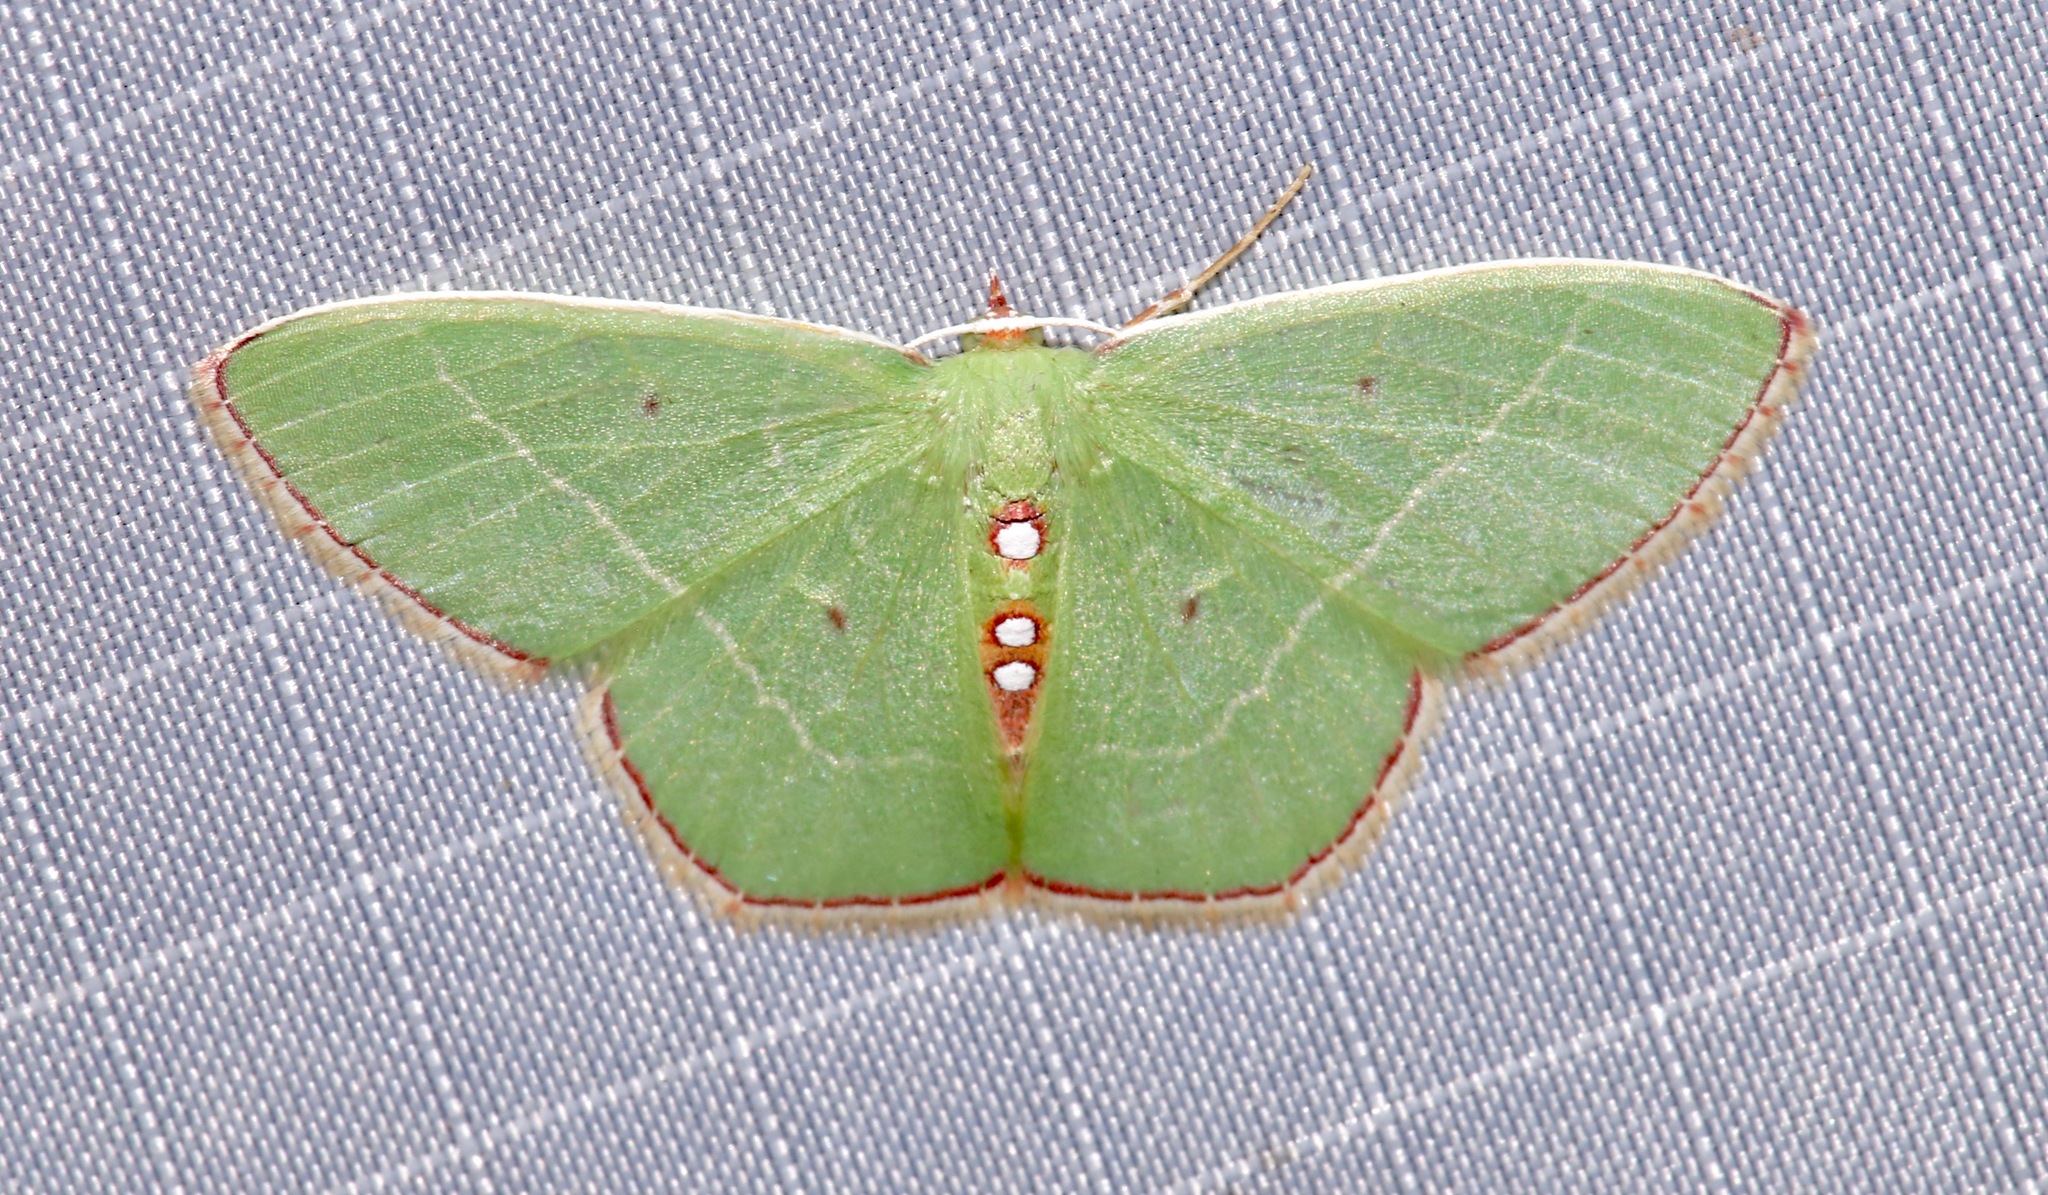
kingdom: Animalia
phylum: Arthropoda
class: Insecta
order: Lepidoptera
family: Geometridae
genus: Nemoria
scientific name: Nemoria zelotes
